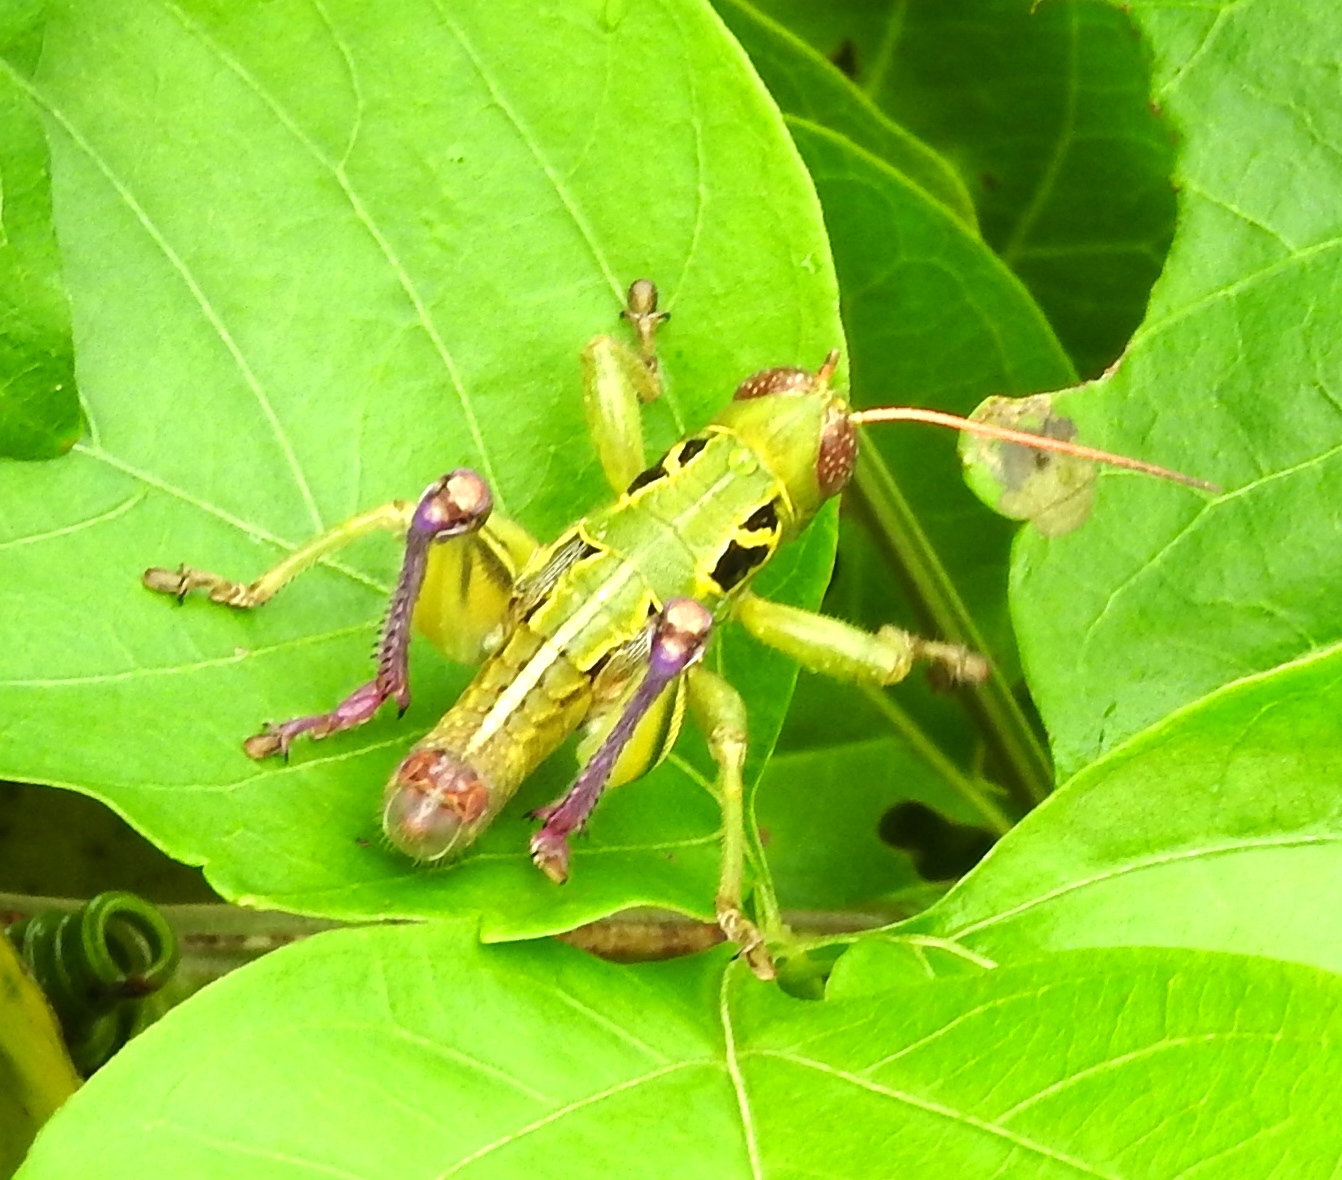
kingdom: Animalia
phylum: Arthropoda
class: Insecta
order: Orthoptera
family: Acrididae
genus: Barytettix
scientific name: Barytettix
